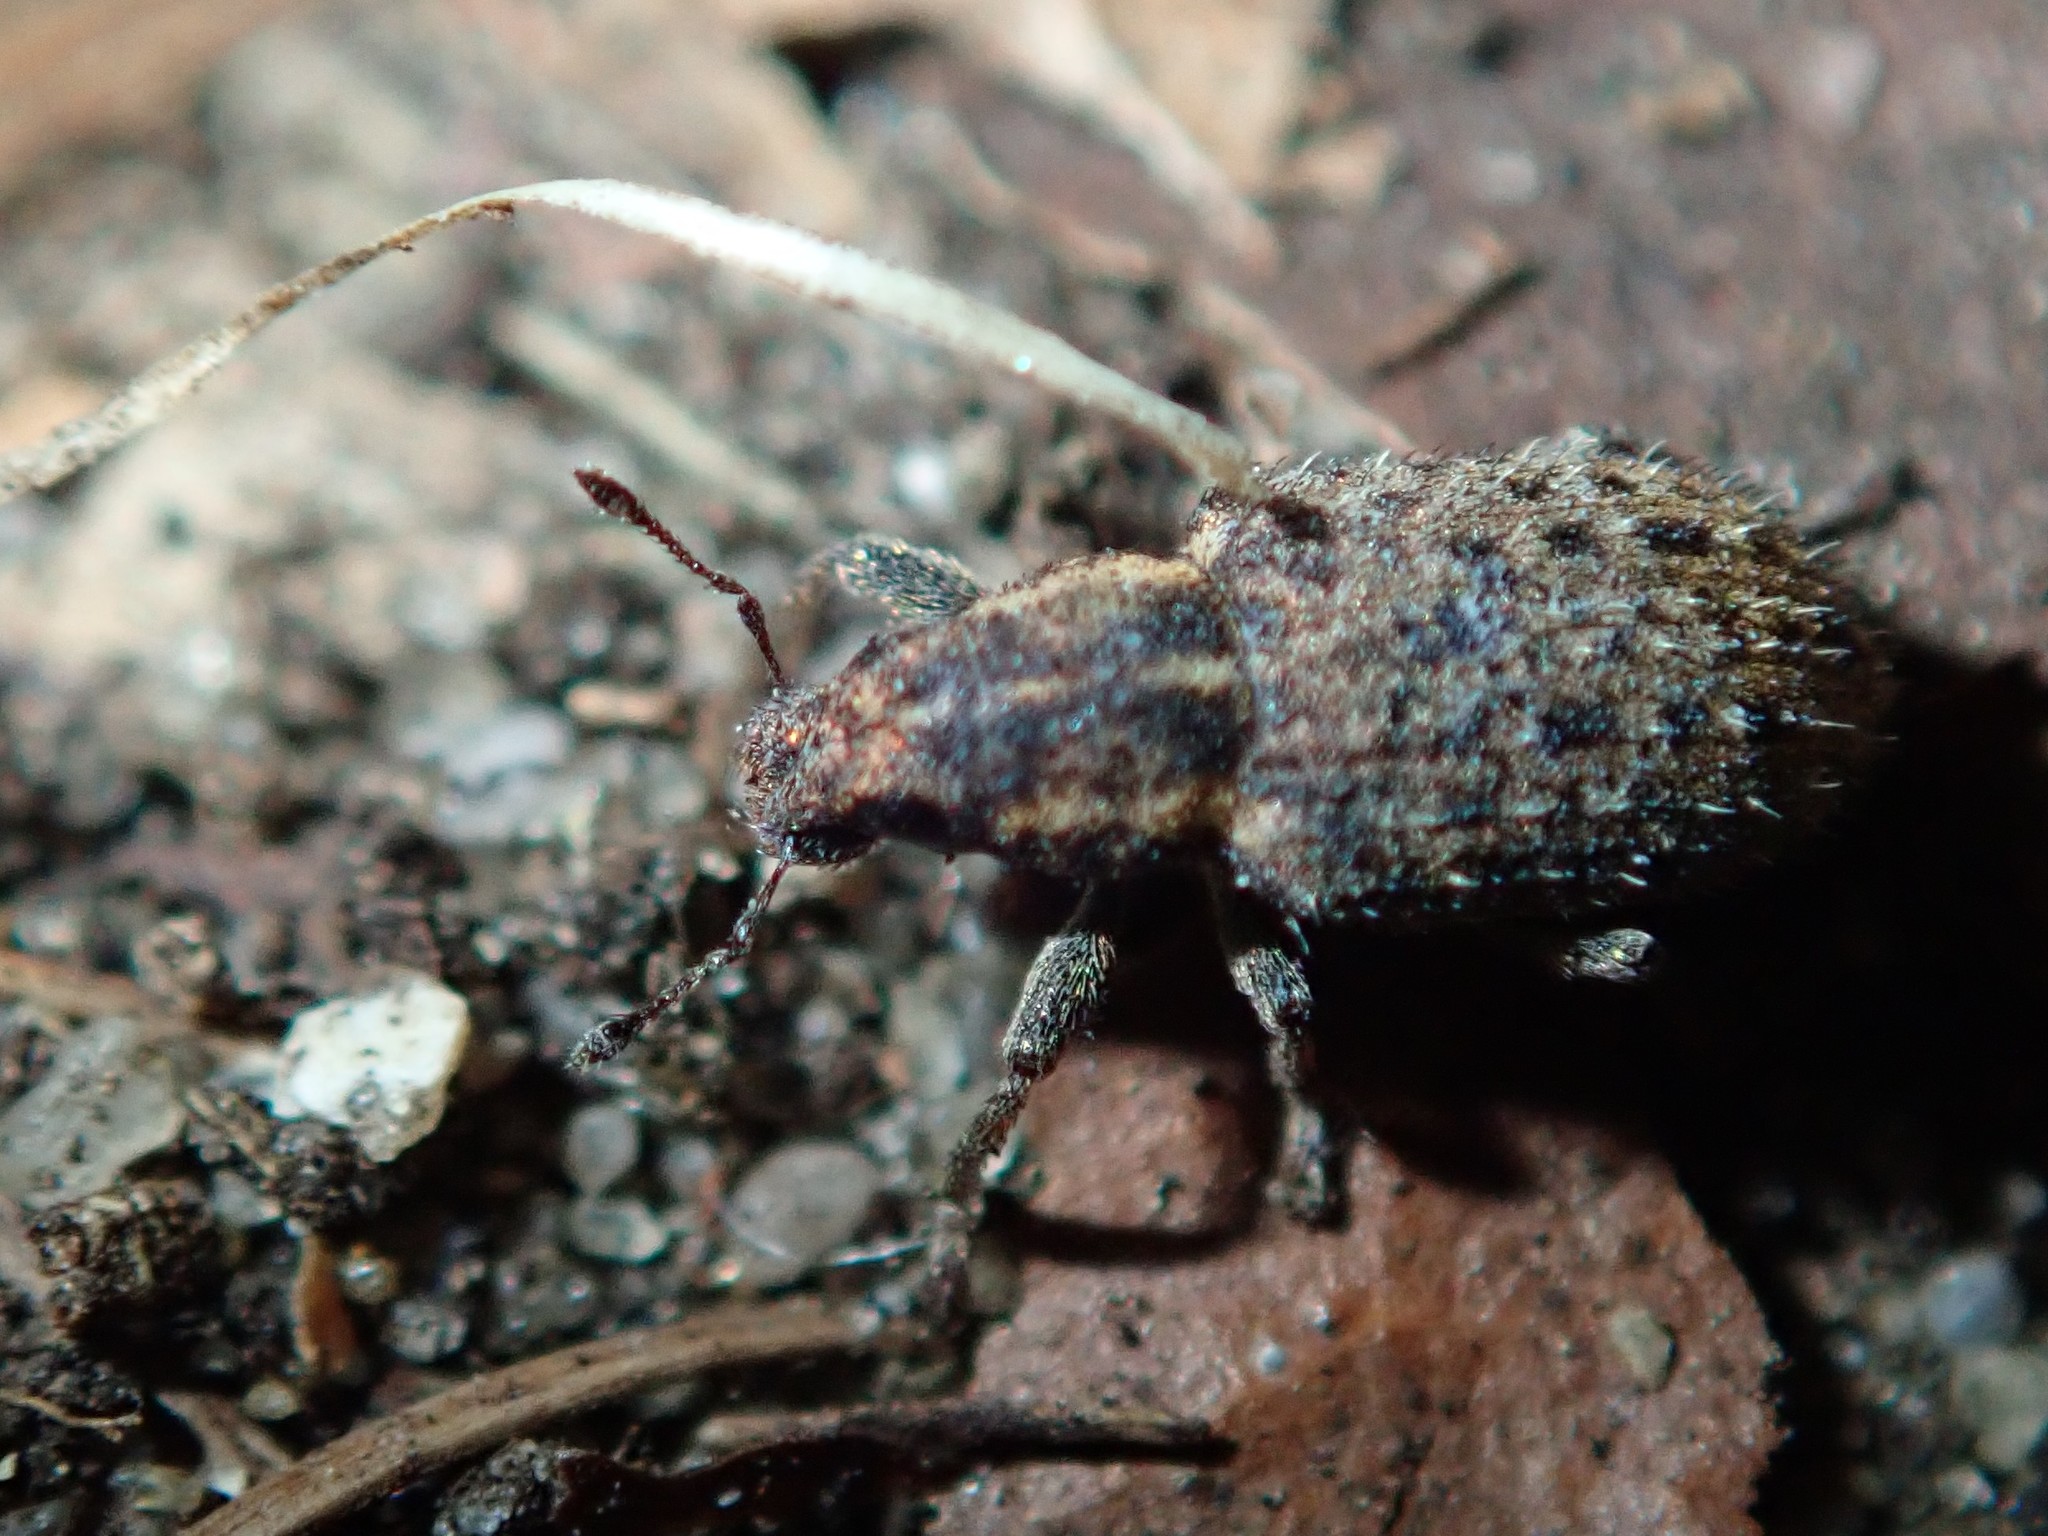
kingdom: Animalia
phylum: Arthropoda
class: Insecta
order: Coleoptera
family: Curculionidae
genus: Sitona
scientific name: Sitona hispidulus
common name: Clover weevil
